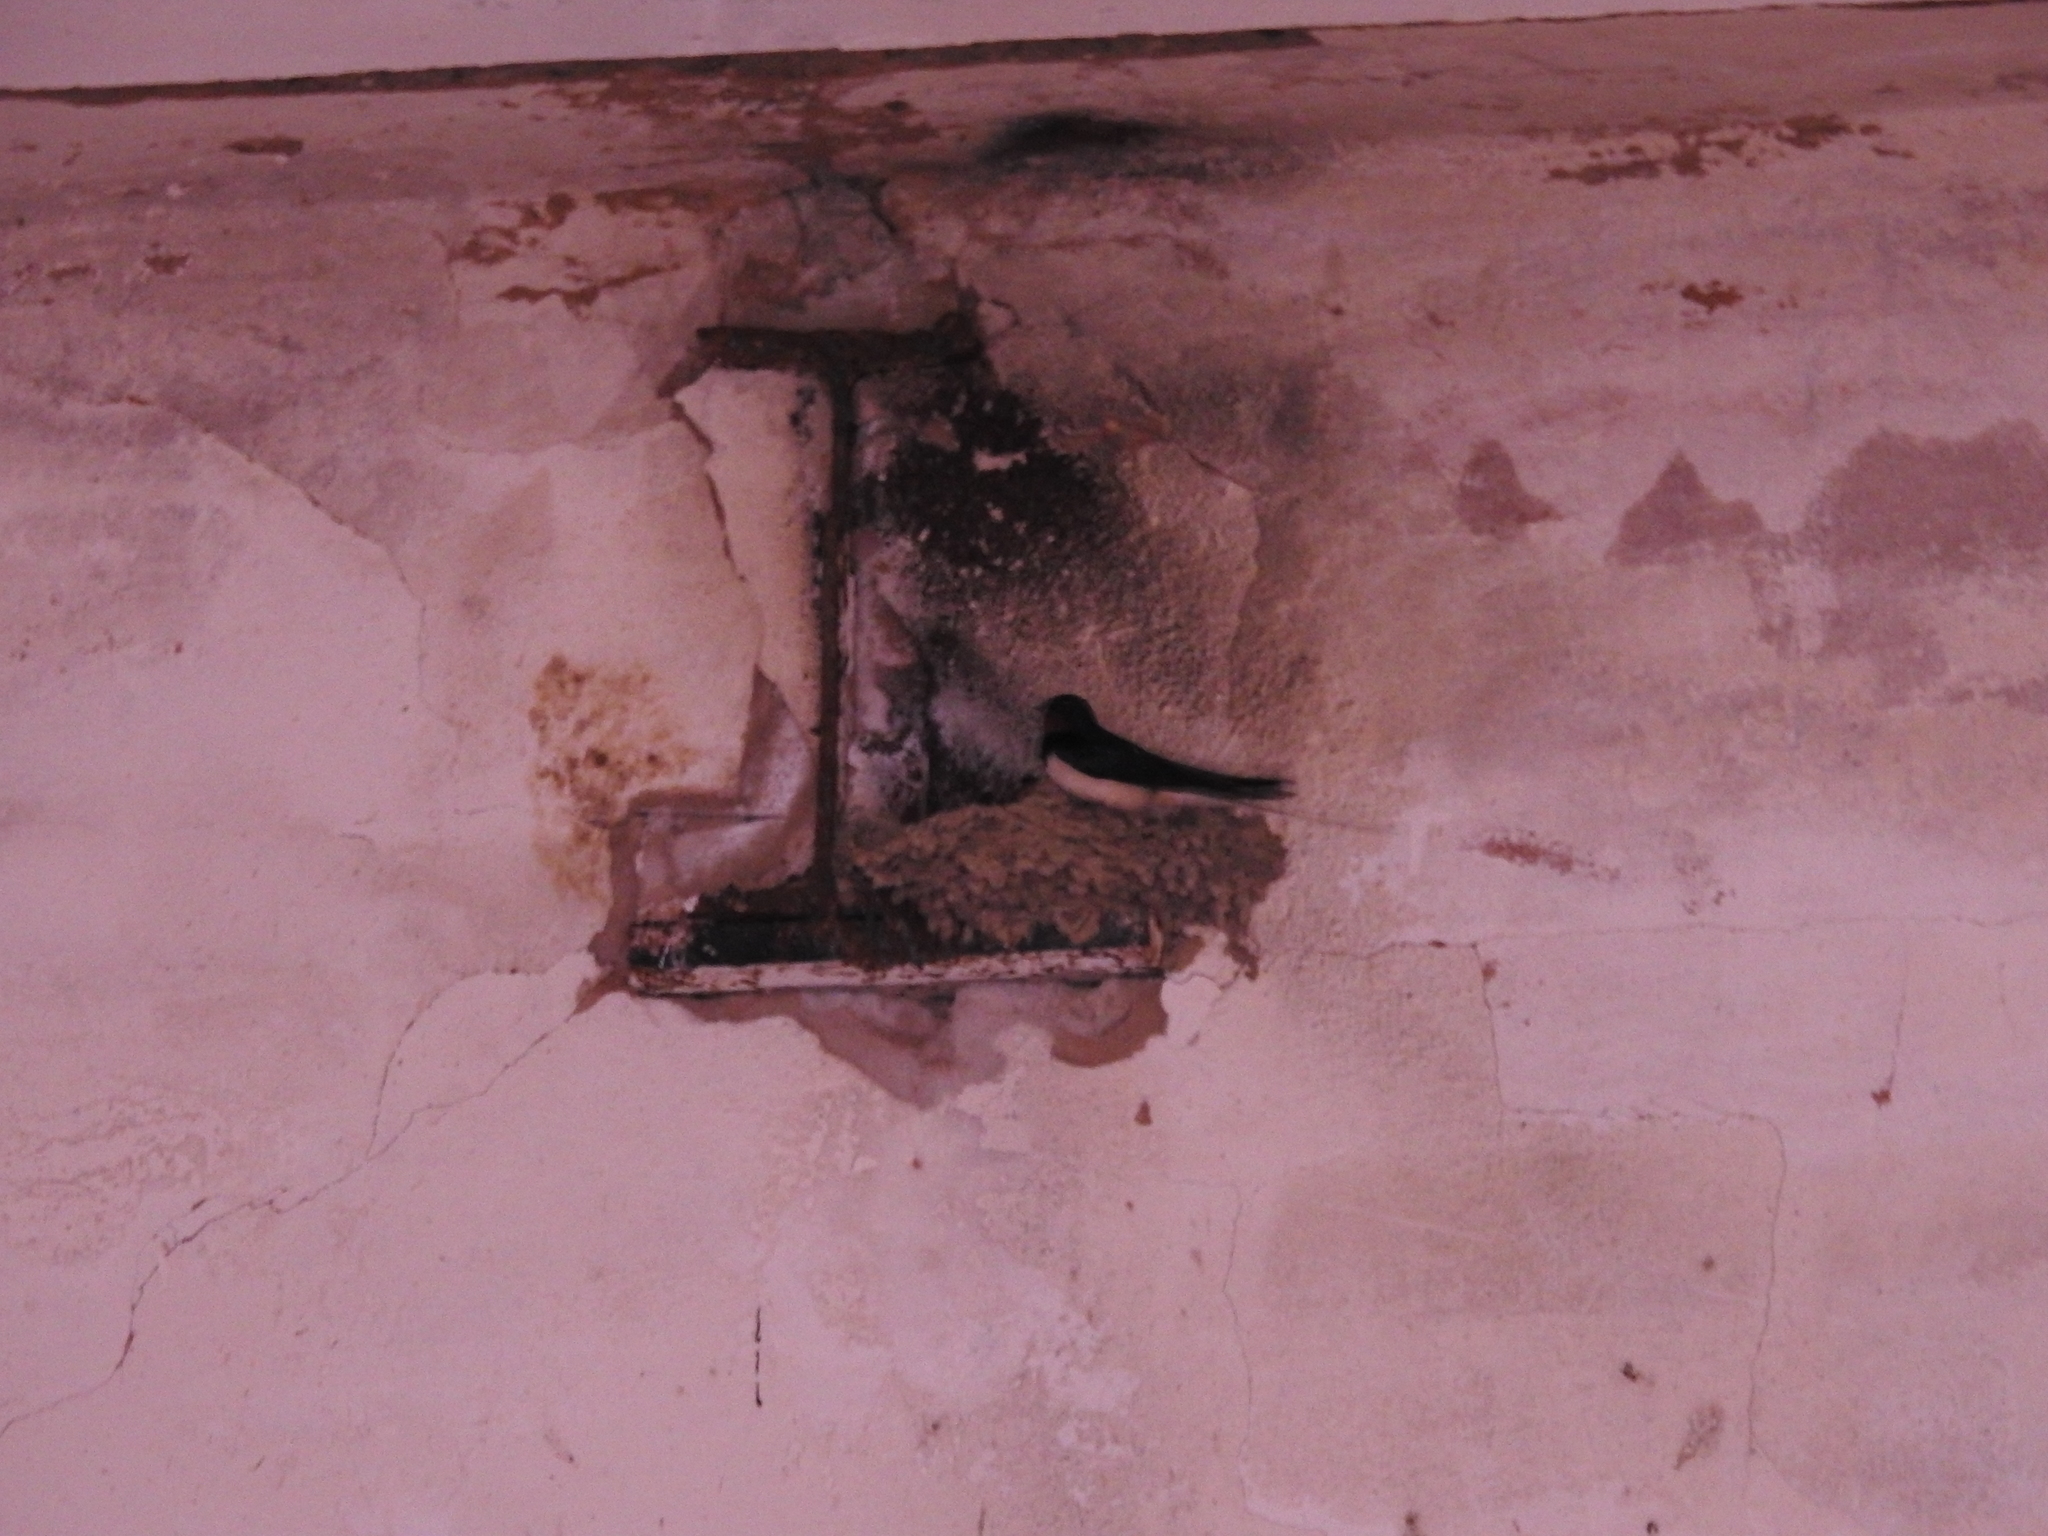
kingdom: Animalia
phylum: Chordata
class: Aves
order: Passeriformes
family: Hirundinidae
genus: Hirundo
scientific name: Hirundo rustica
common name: Barn swallow
